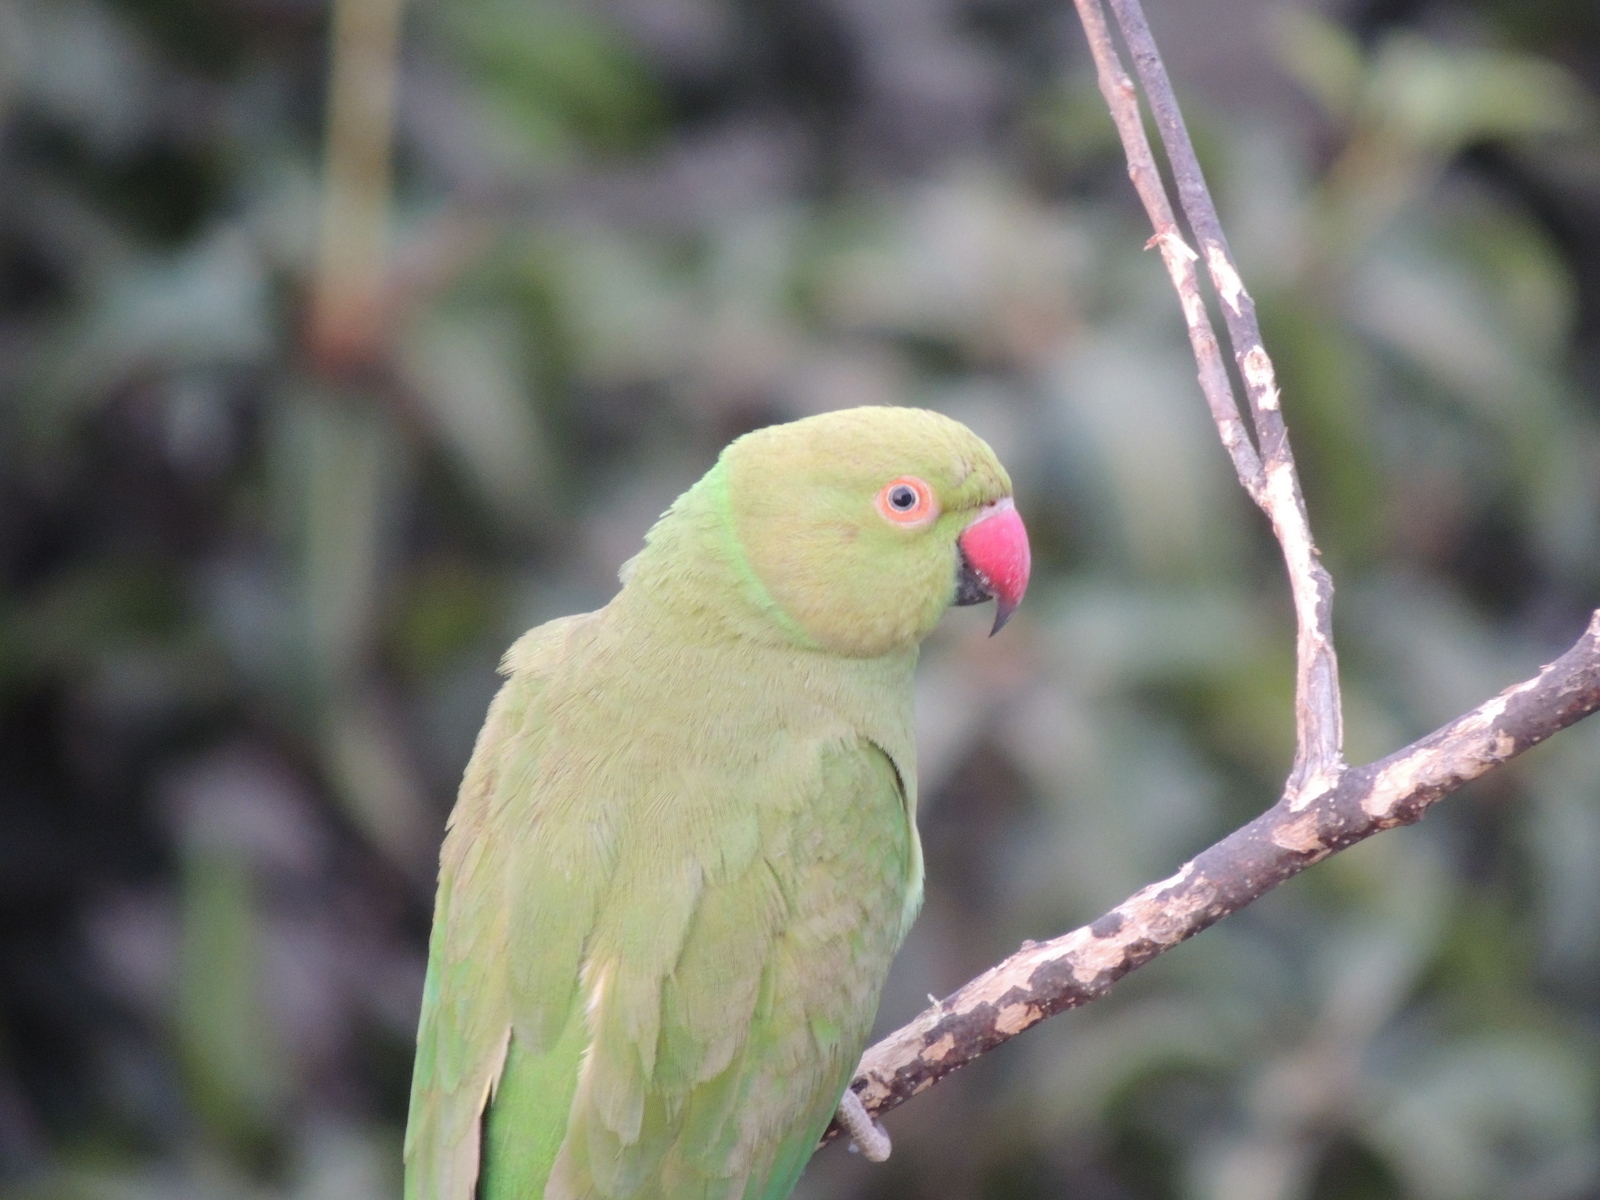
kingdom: Animalia
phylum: Chordata
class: Aves
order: Psittaciformes
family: Psittacidae
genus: Psittacula
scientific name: Psittacula krameri
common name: Rose-ringed parakeet
